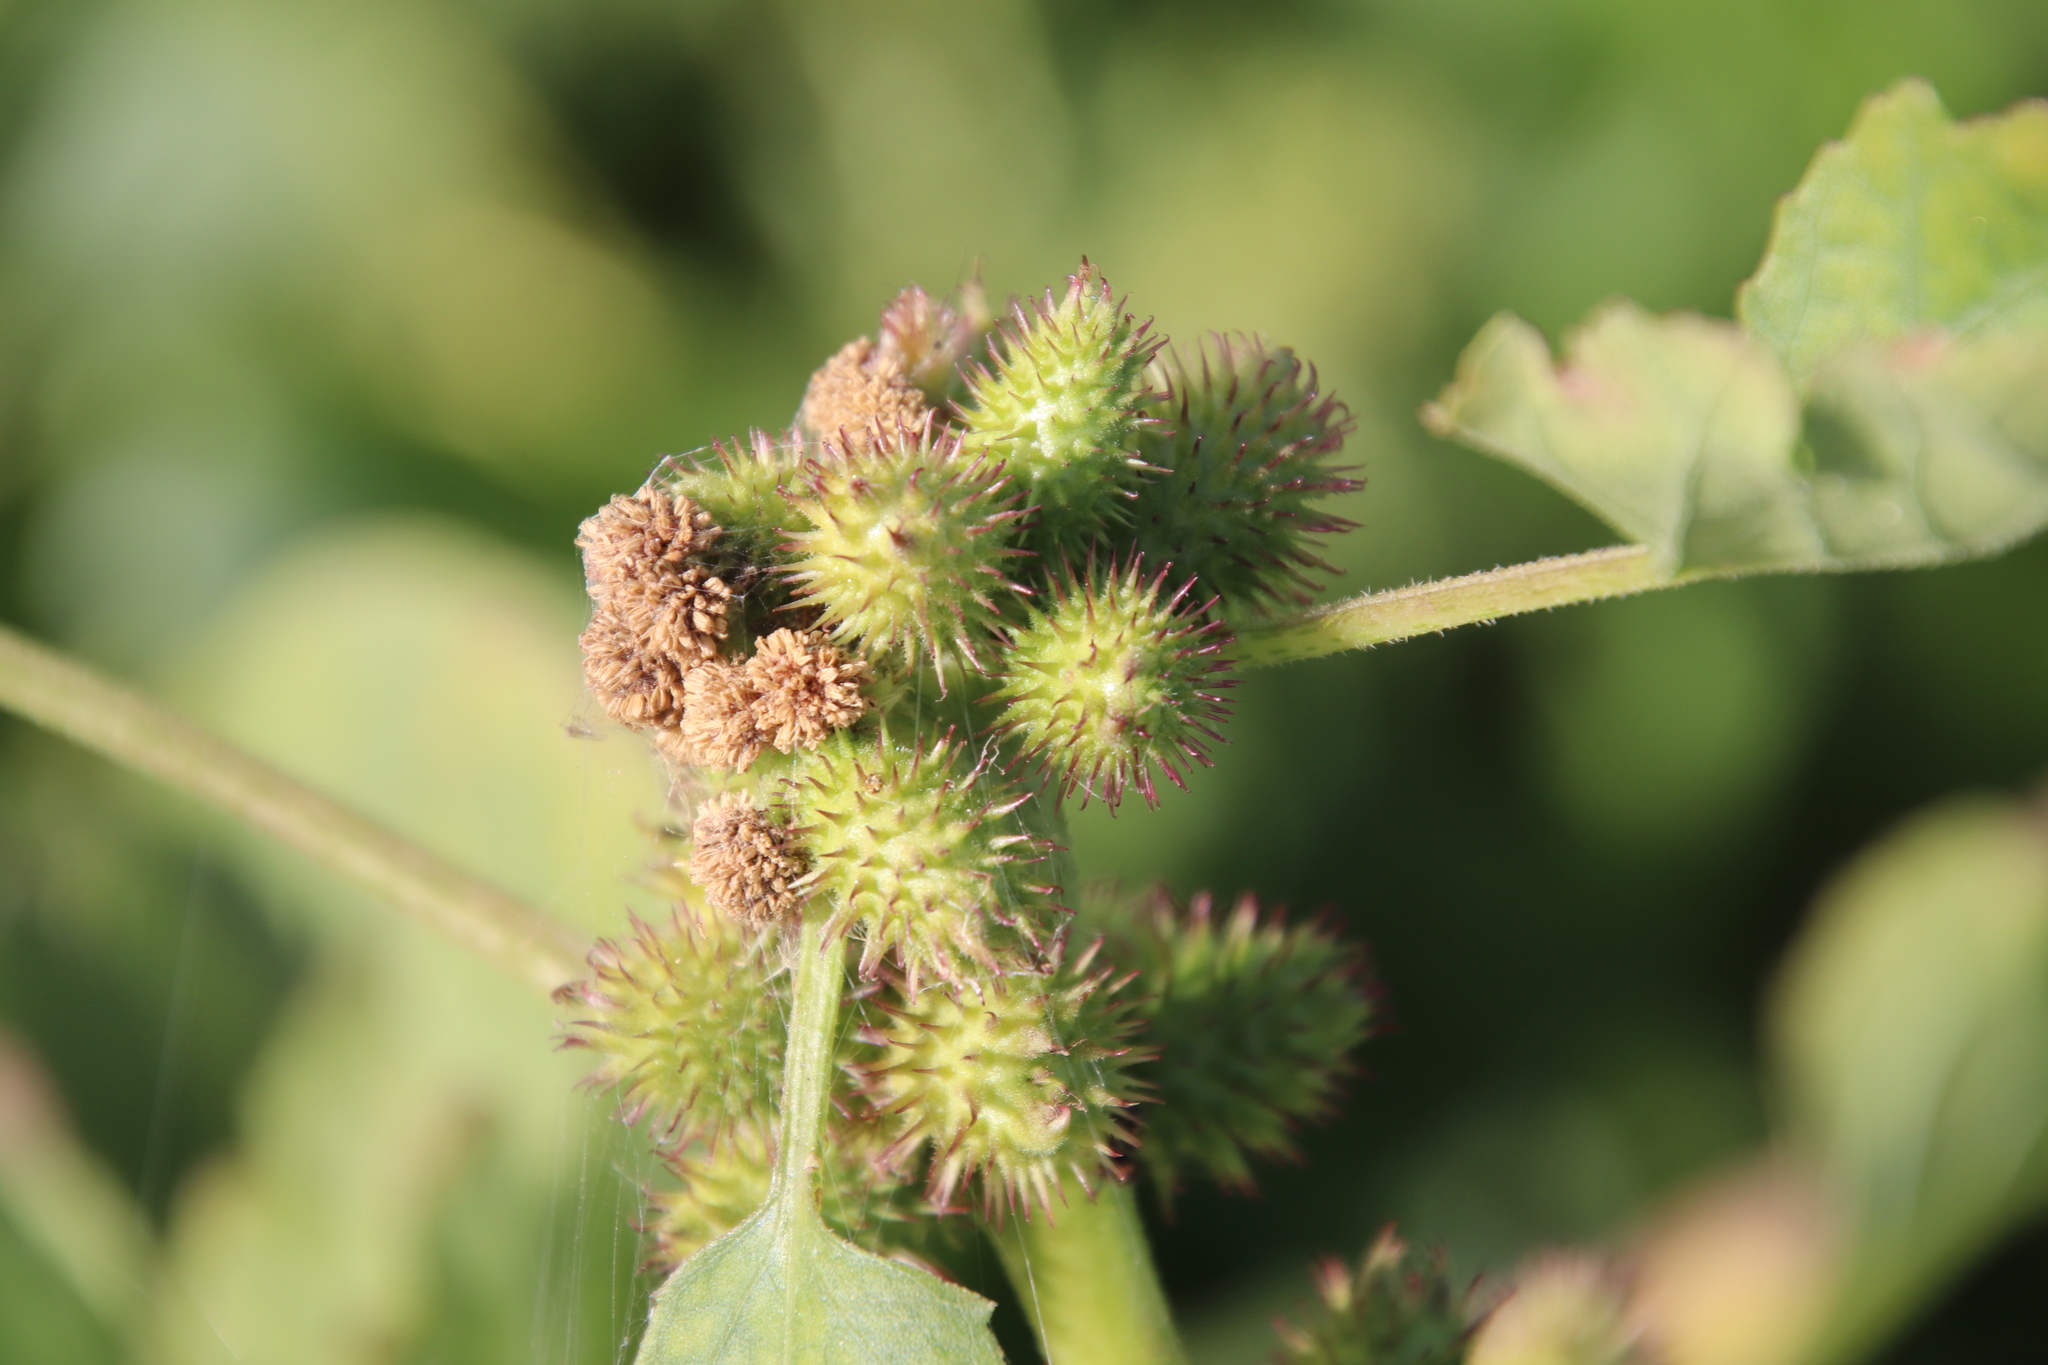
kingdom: Plantae
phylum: Tracheophyta
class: Magnoliopsida
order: Asterales
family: Asteraceae
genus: Xanthium
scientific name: Xanthium strumarium
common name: Rough cocklebur
